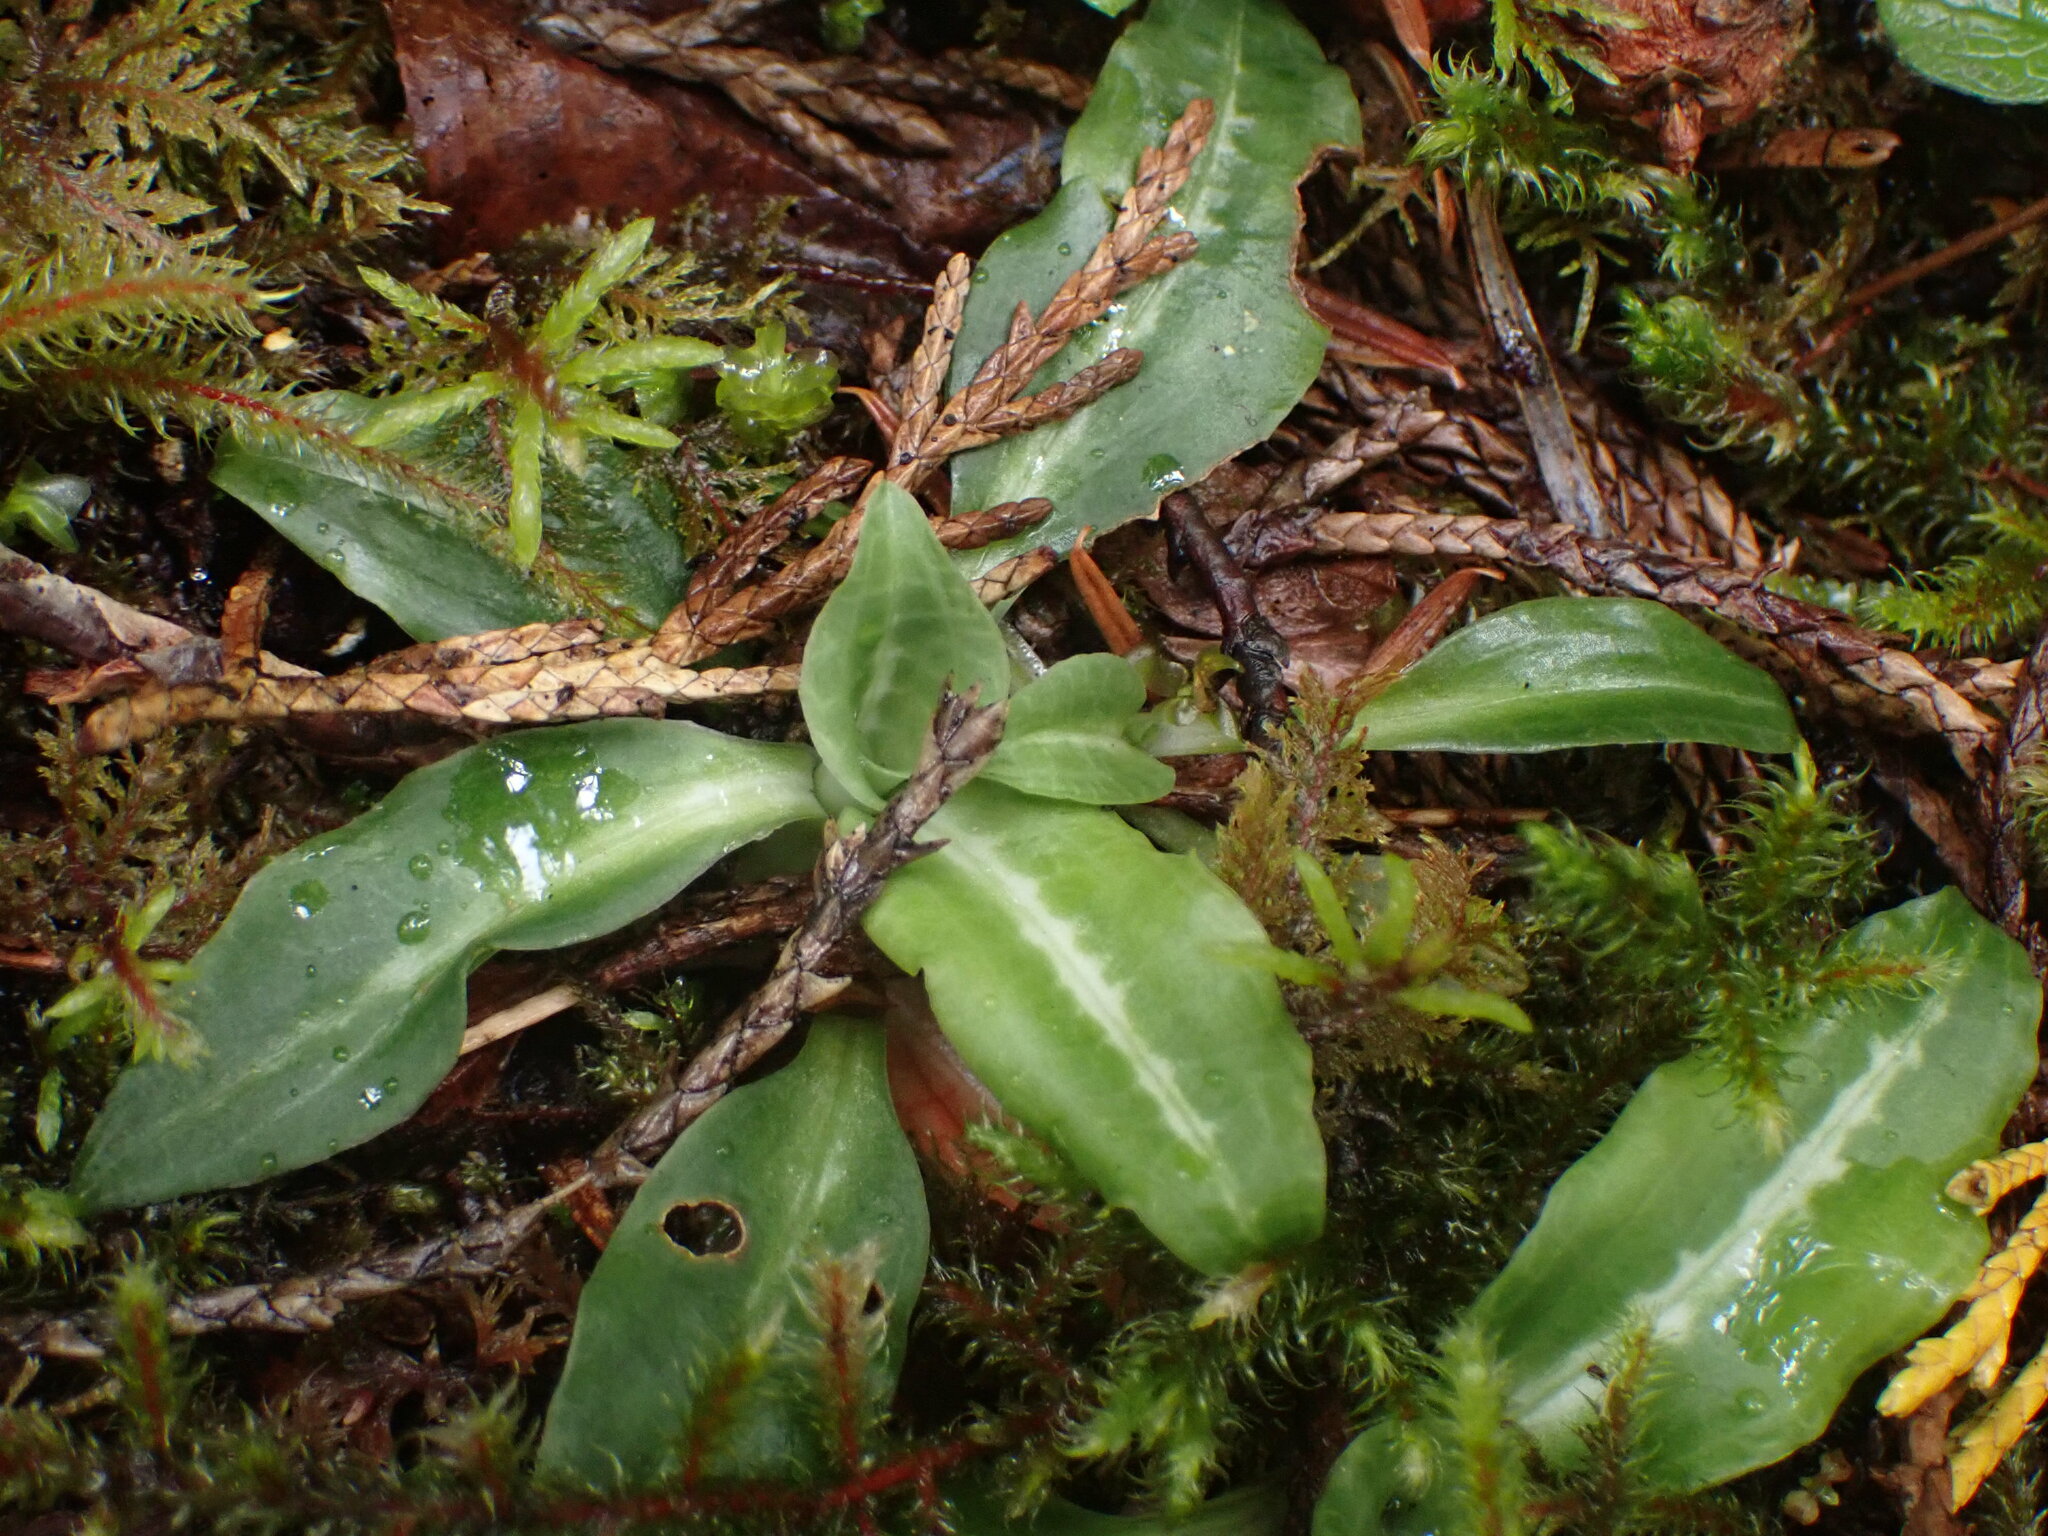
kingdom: Plantae
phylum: Tracheophyta
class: Liliopsida
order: Asparagales
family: Orchidaceae
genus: Goodyera
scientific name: Goodyera oblongifolia
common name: Giant rattlesnake-plantain
